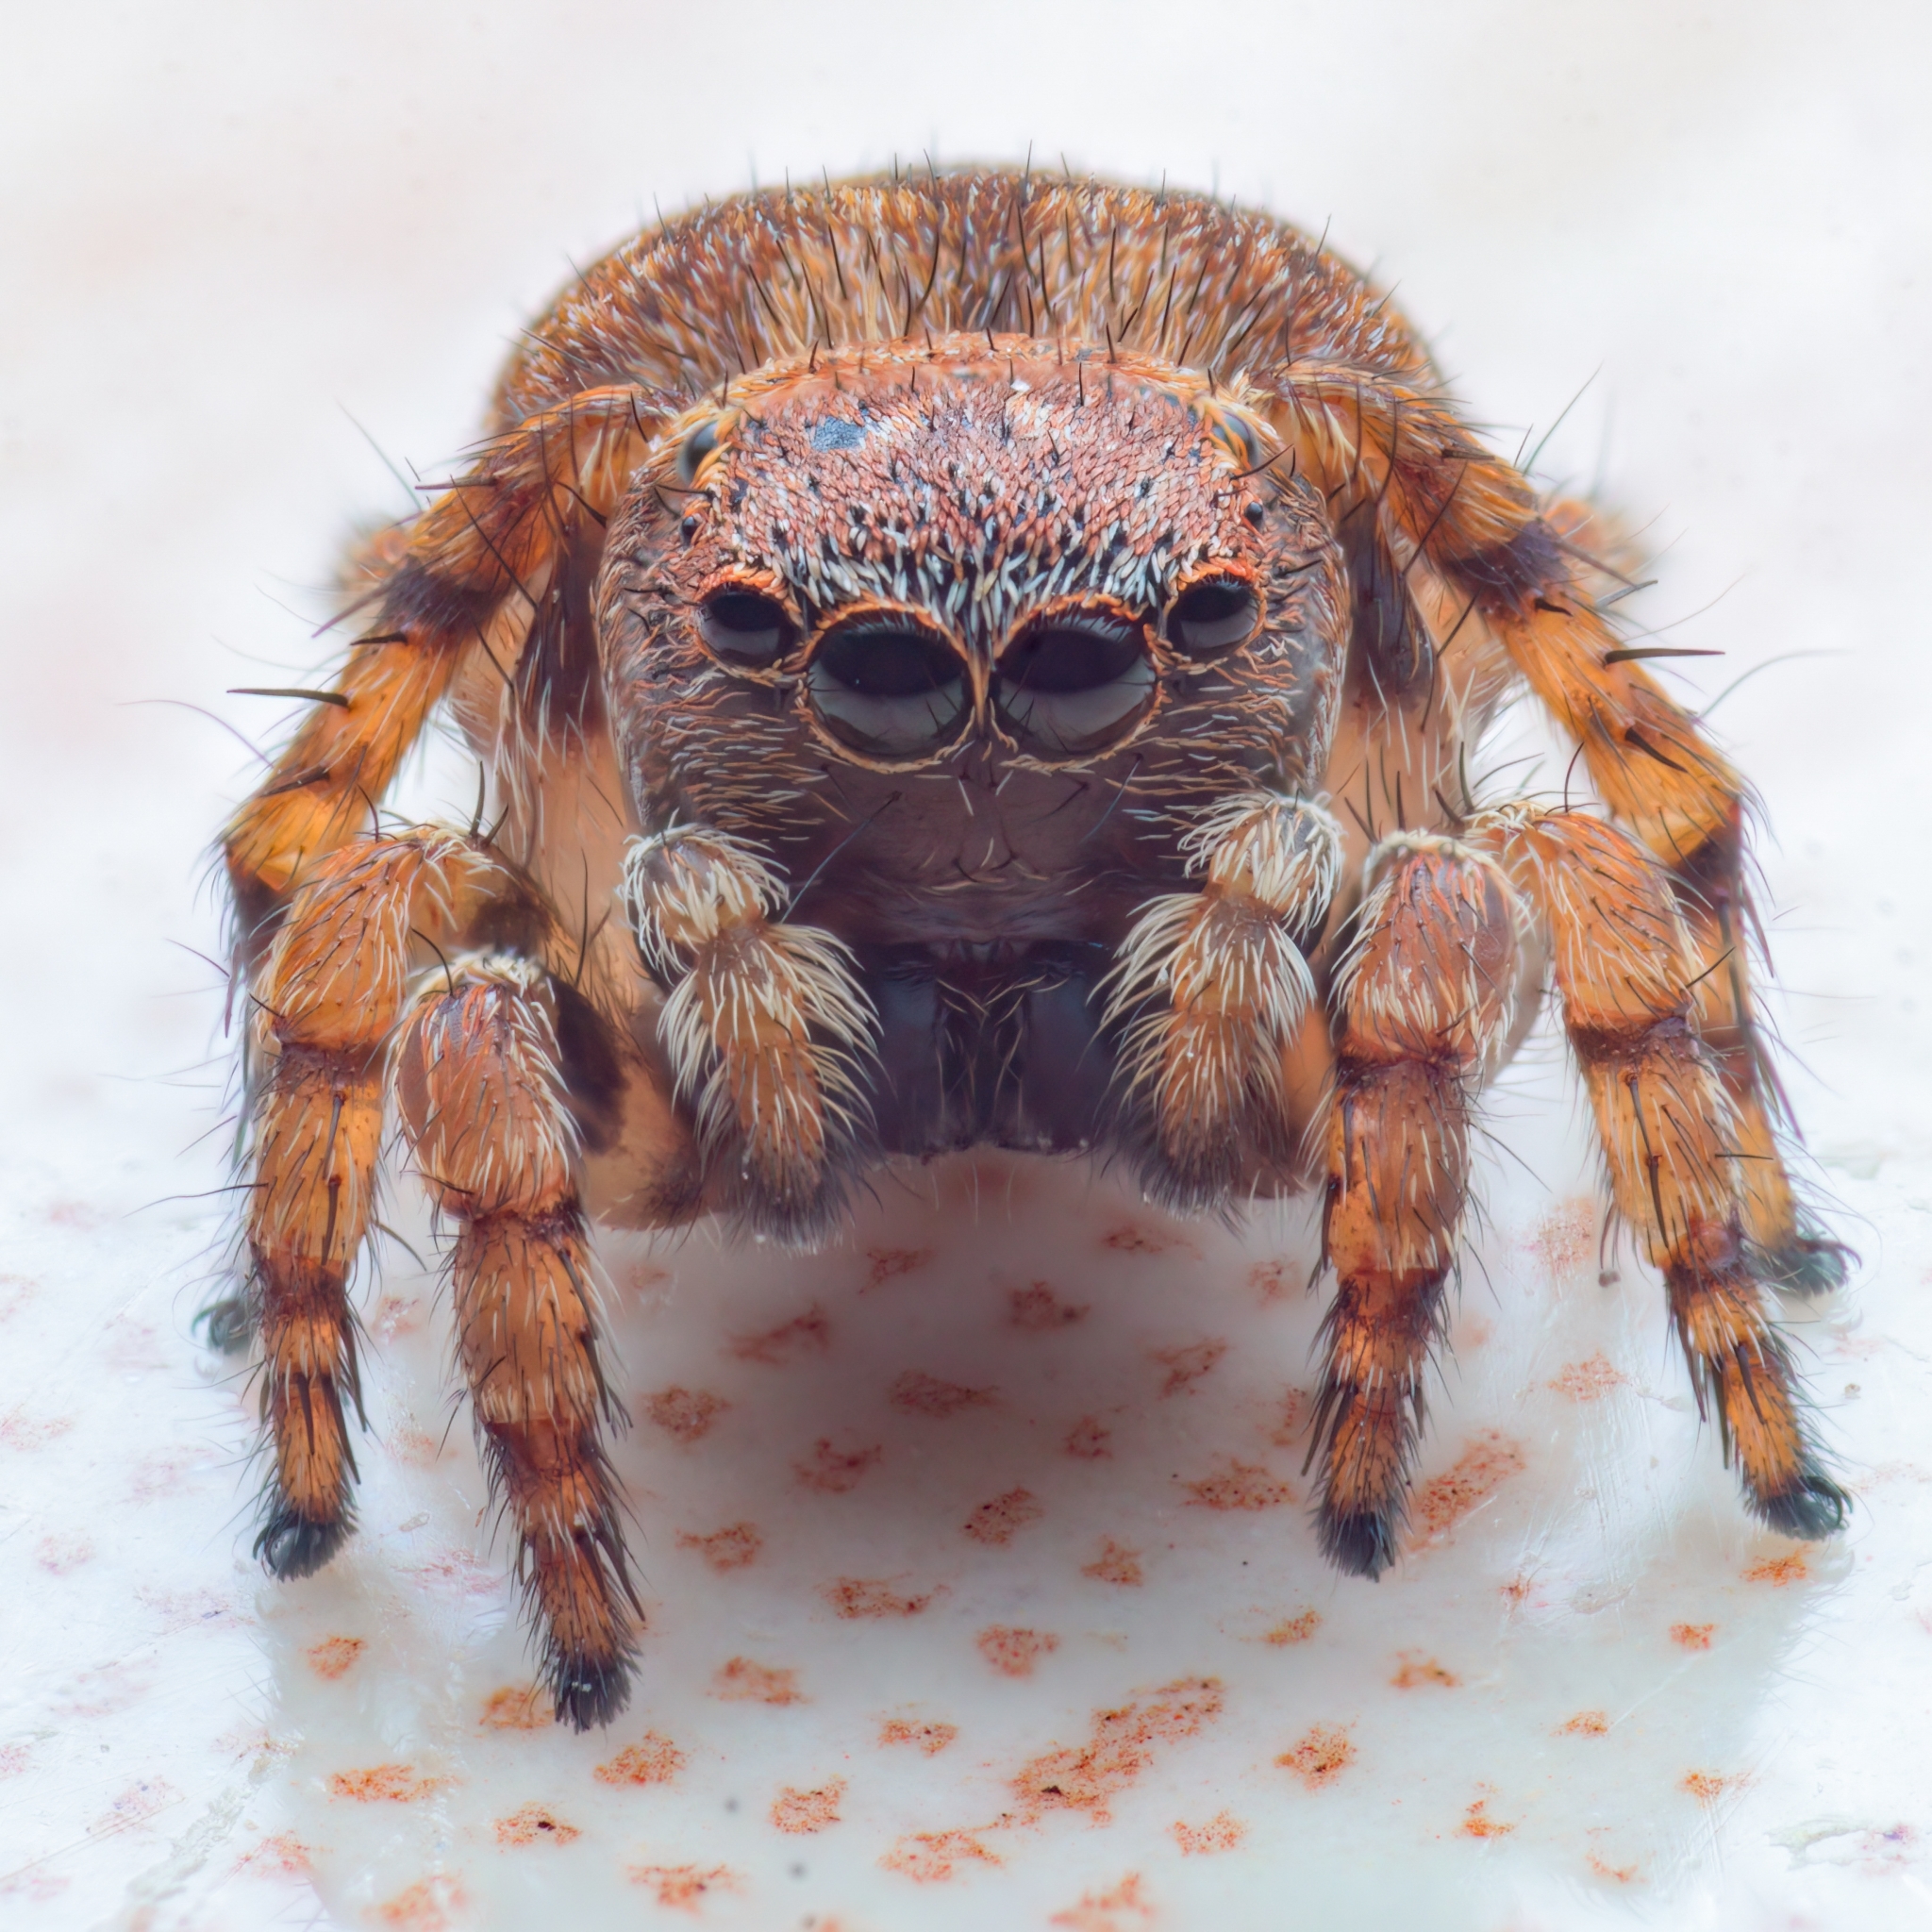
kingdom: Animalia
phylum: Arthropoda
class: Arachnida
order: Araneae
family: Salticidae
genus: Phanuelus
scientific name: Phanuelus gladstone
